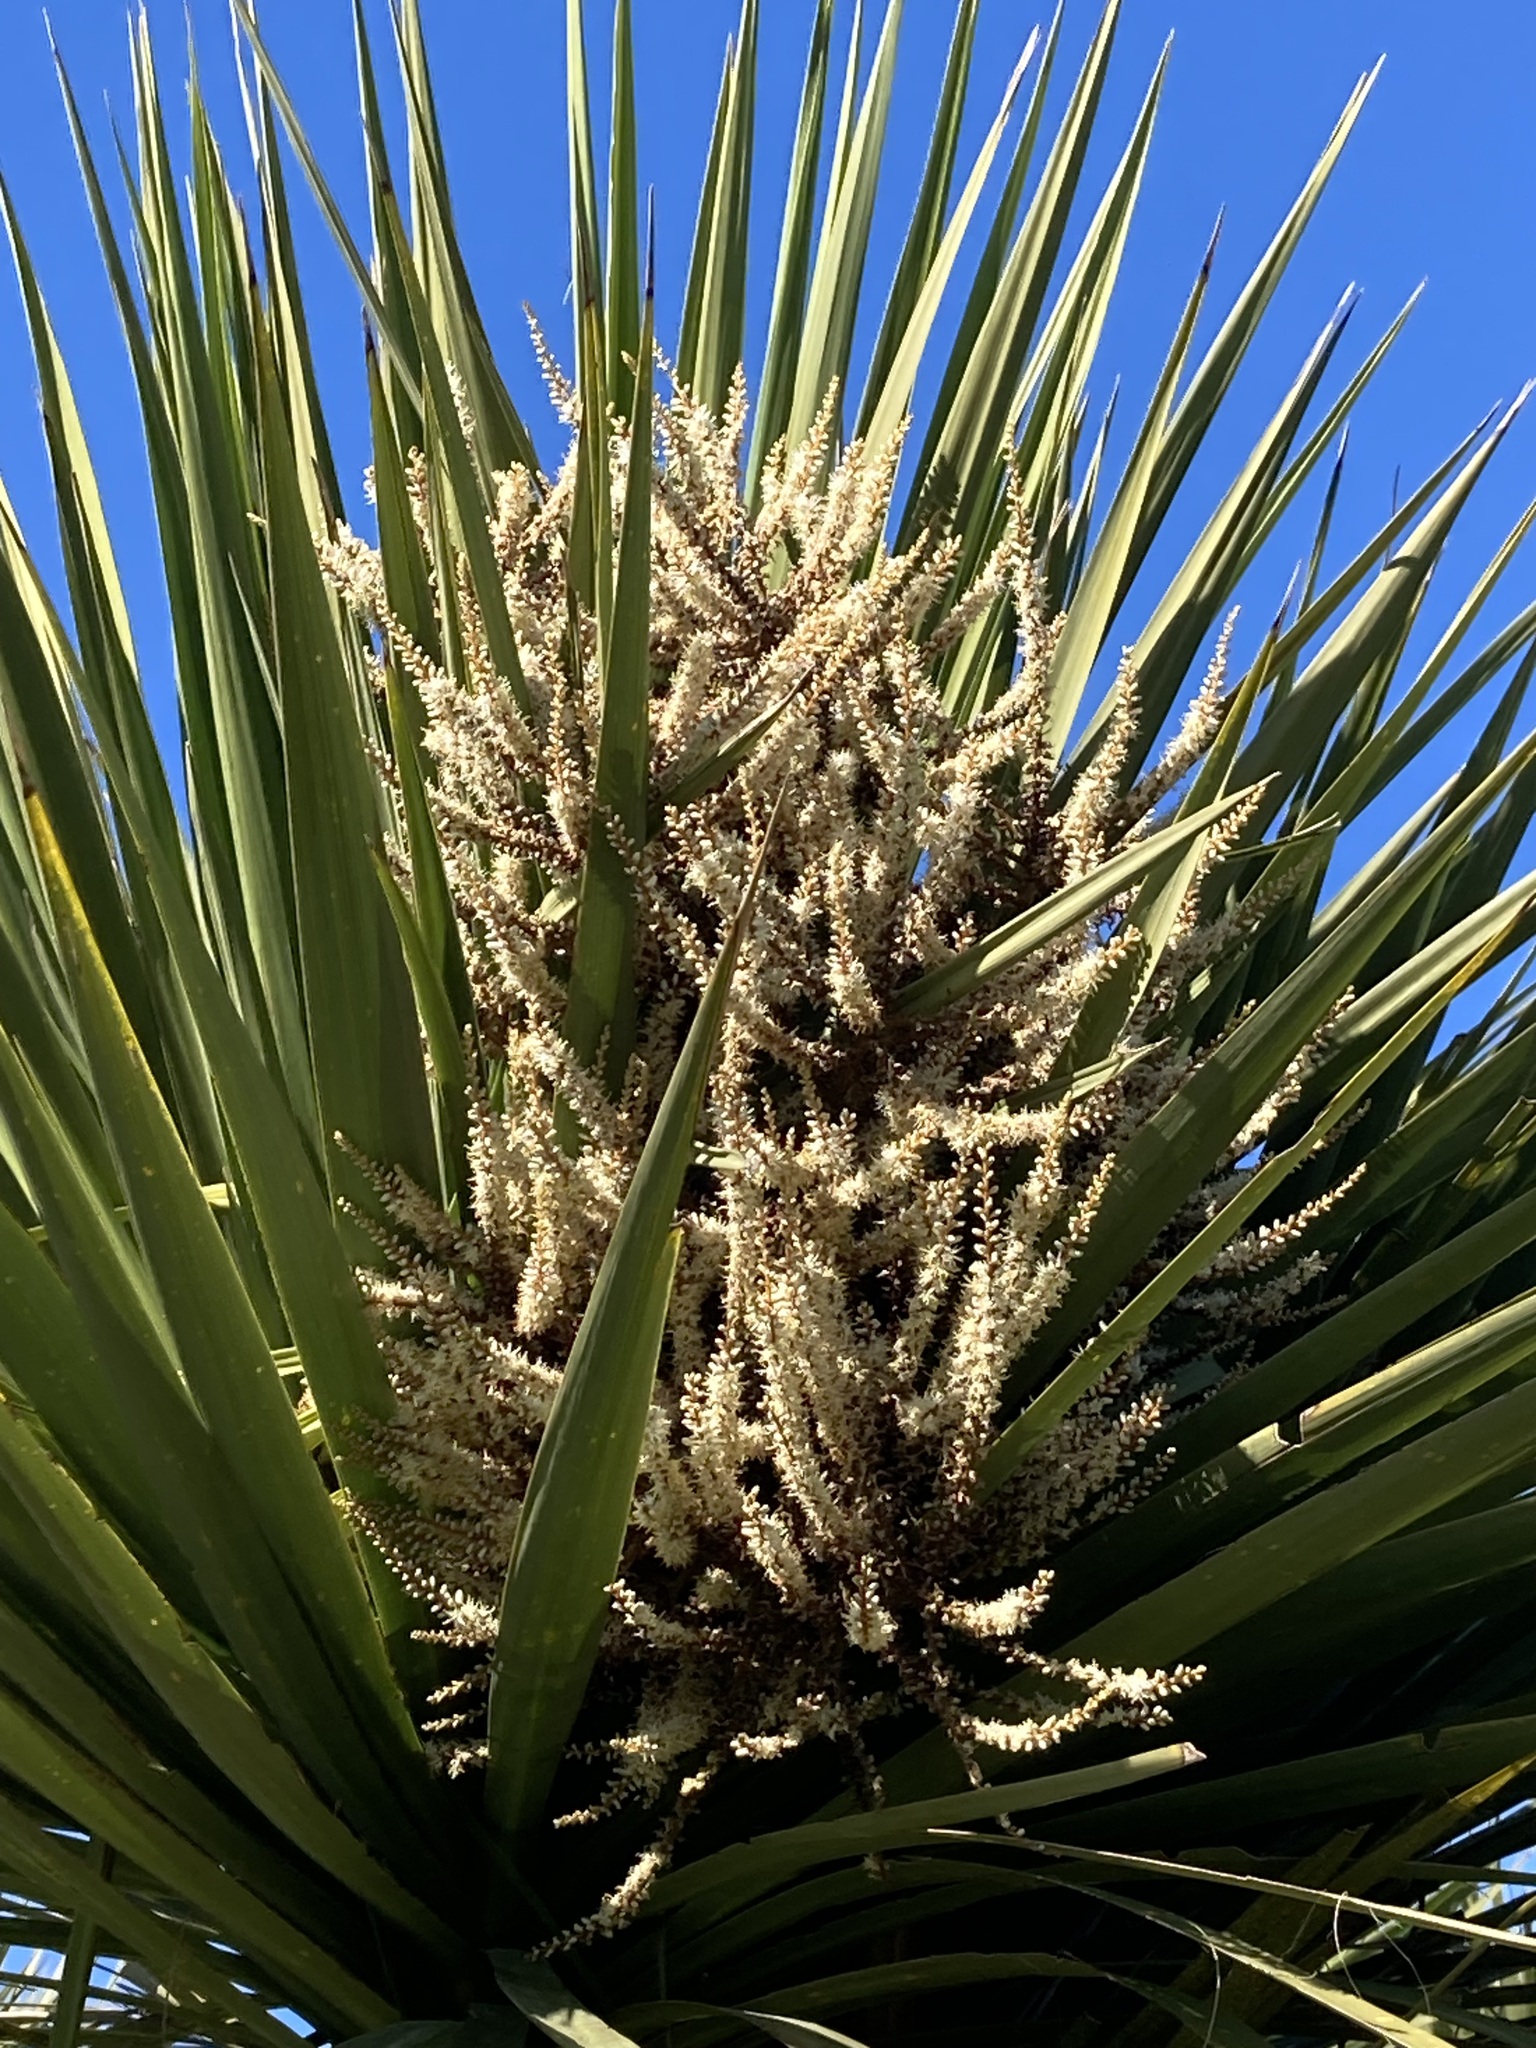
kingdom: Plantae
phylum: Tracheophyta
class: Liliopsida
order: Asparagales
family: Asparagaceae
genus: Cordyline
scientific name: Cordyline australis
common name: Cabbage-palm
